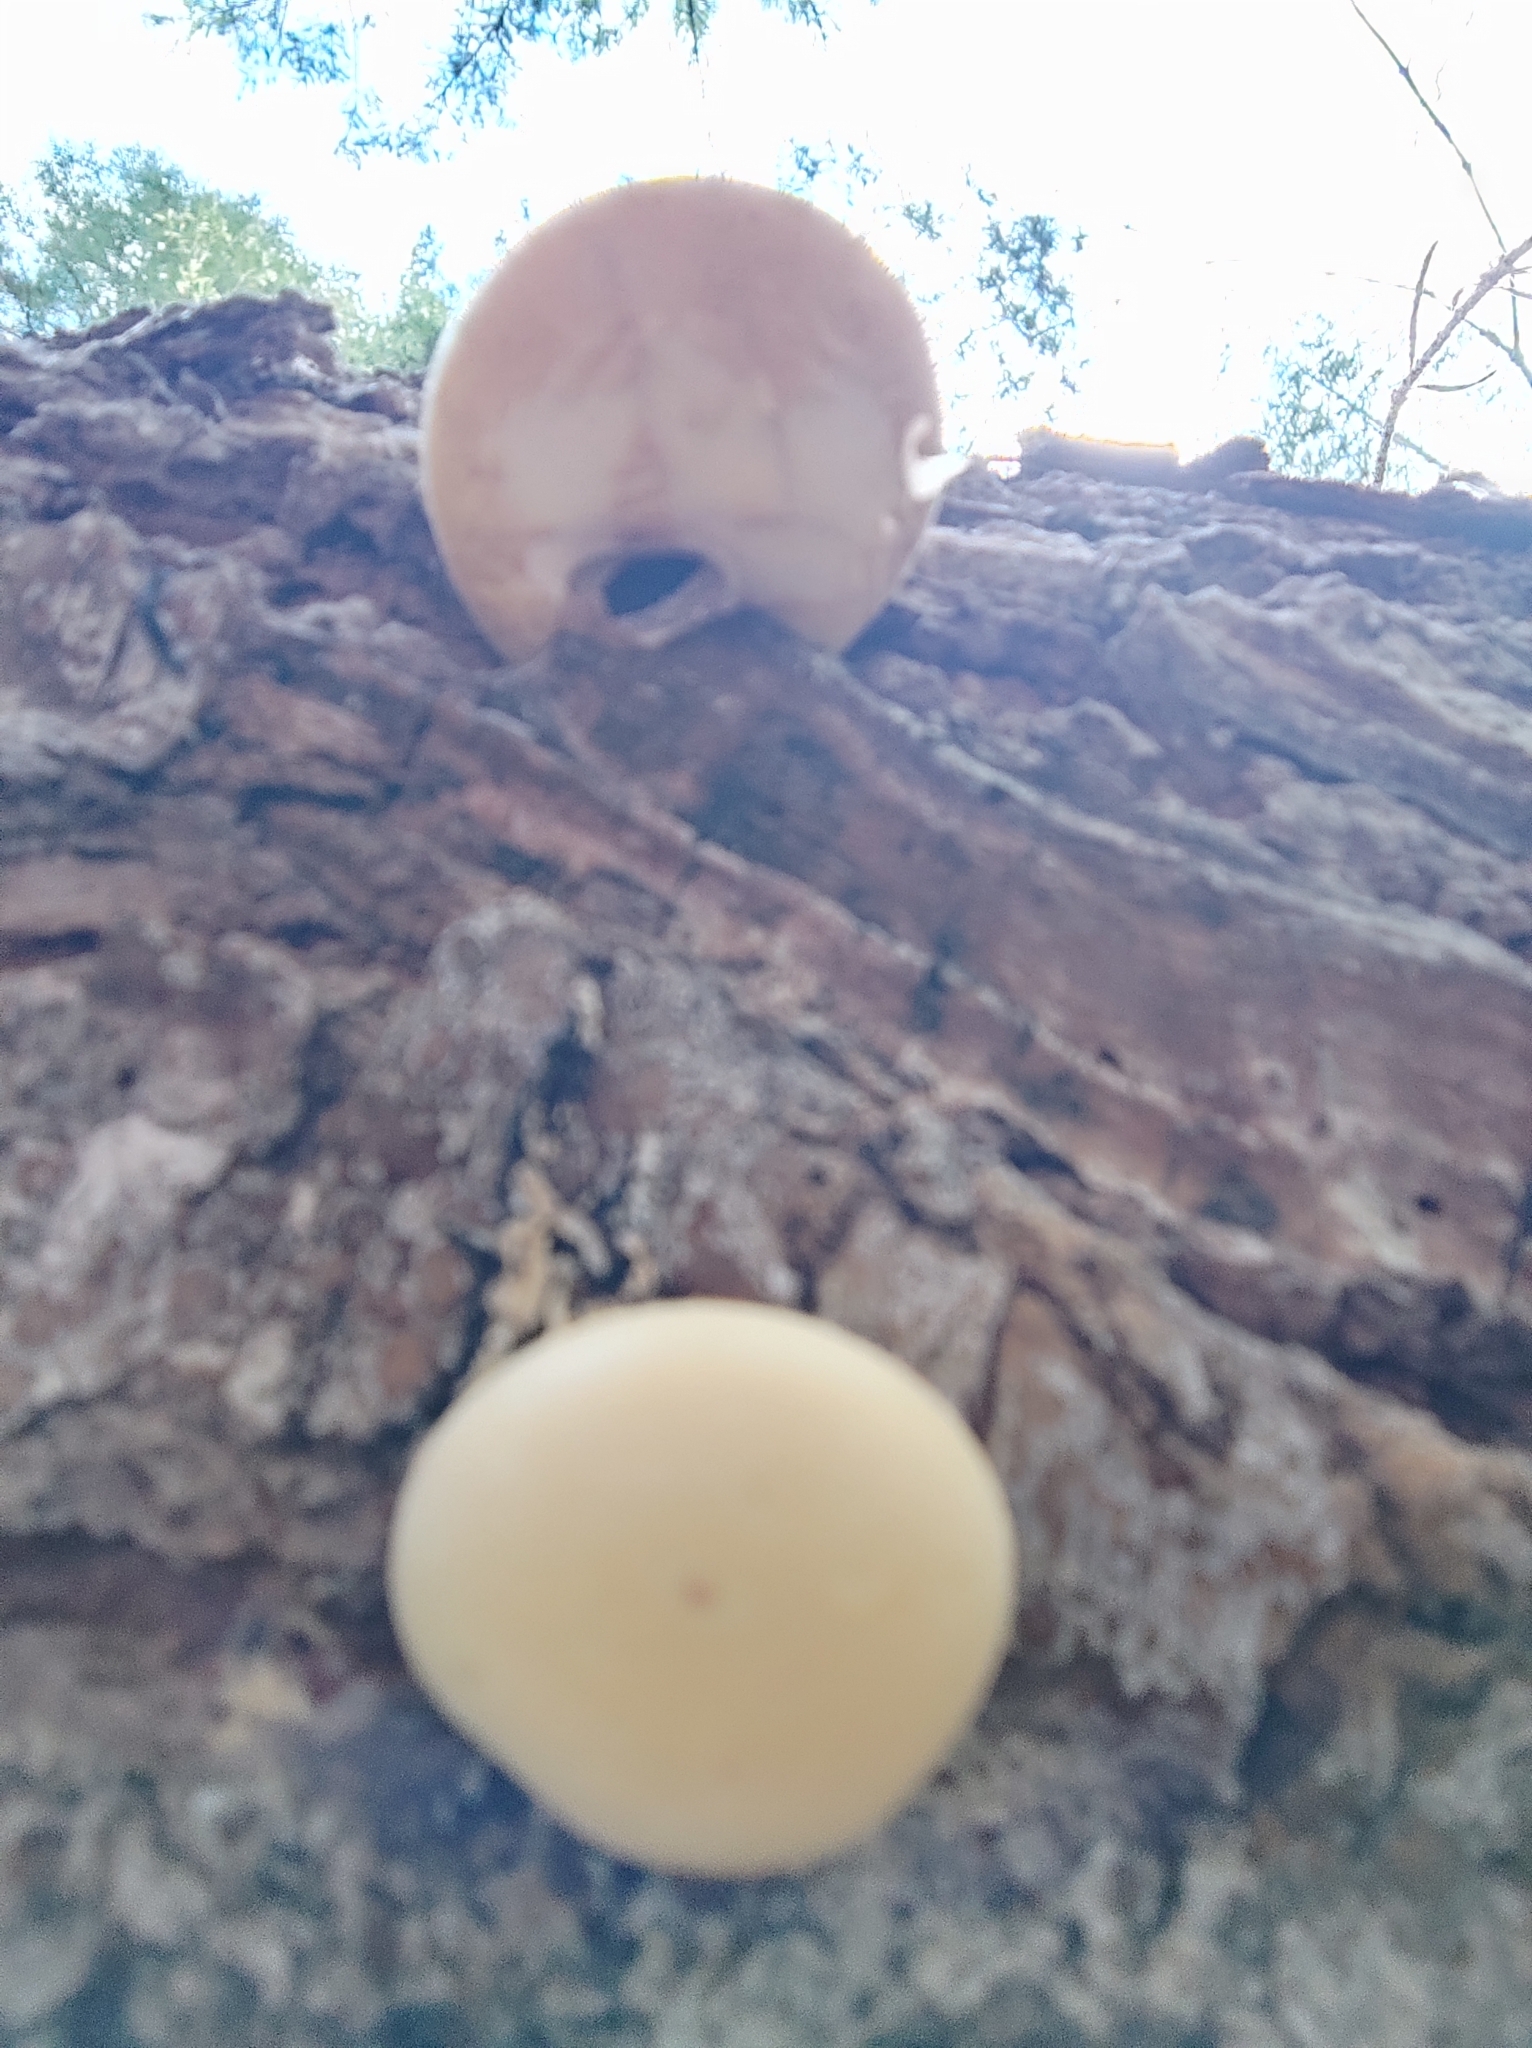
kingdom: Fungi
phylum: Basidiomycota
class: Agaricomycetes
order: Polyporales
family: Polyporaceae
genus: Cryptoporus
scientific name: Cryptoporus volvatus
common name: Veiled polypore
